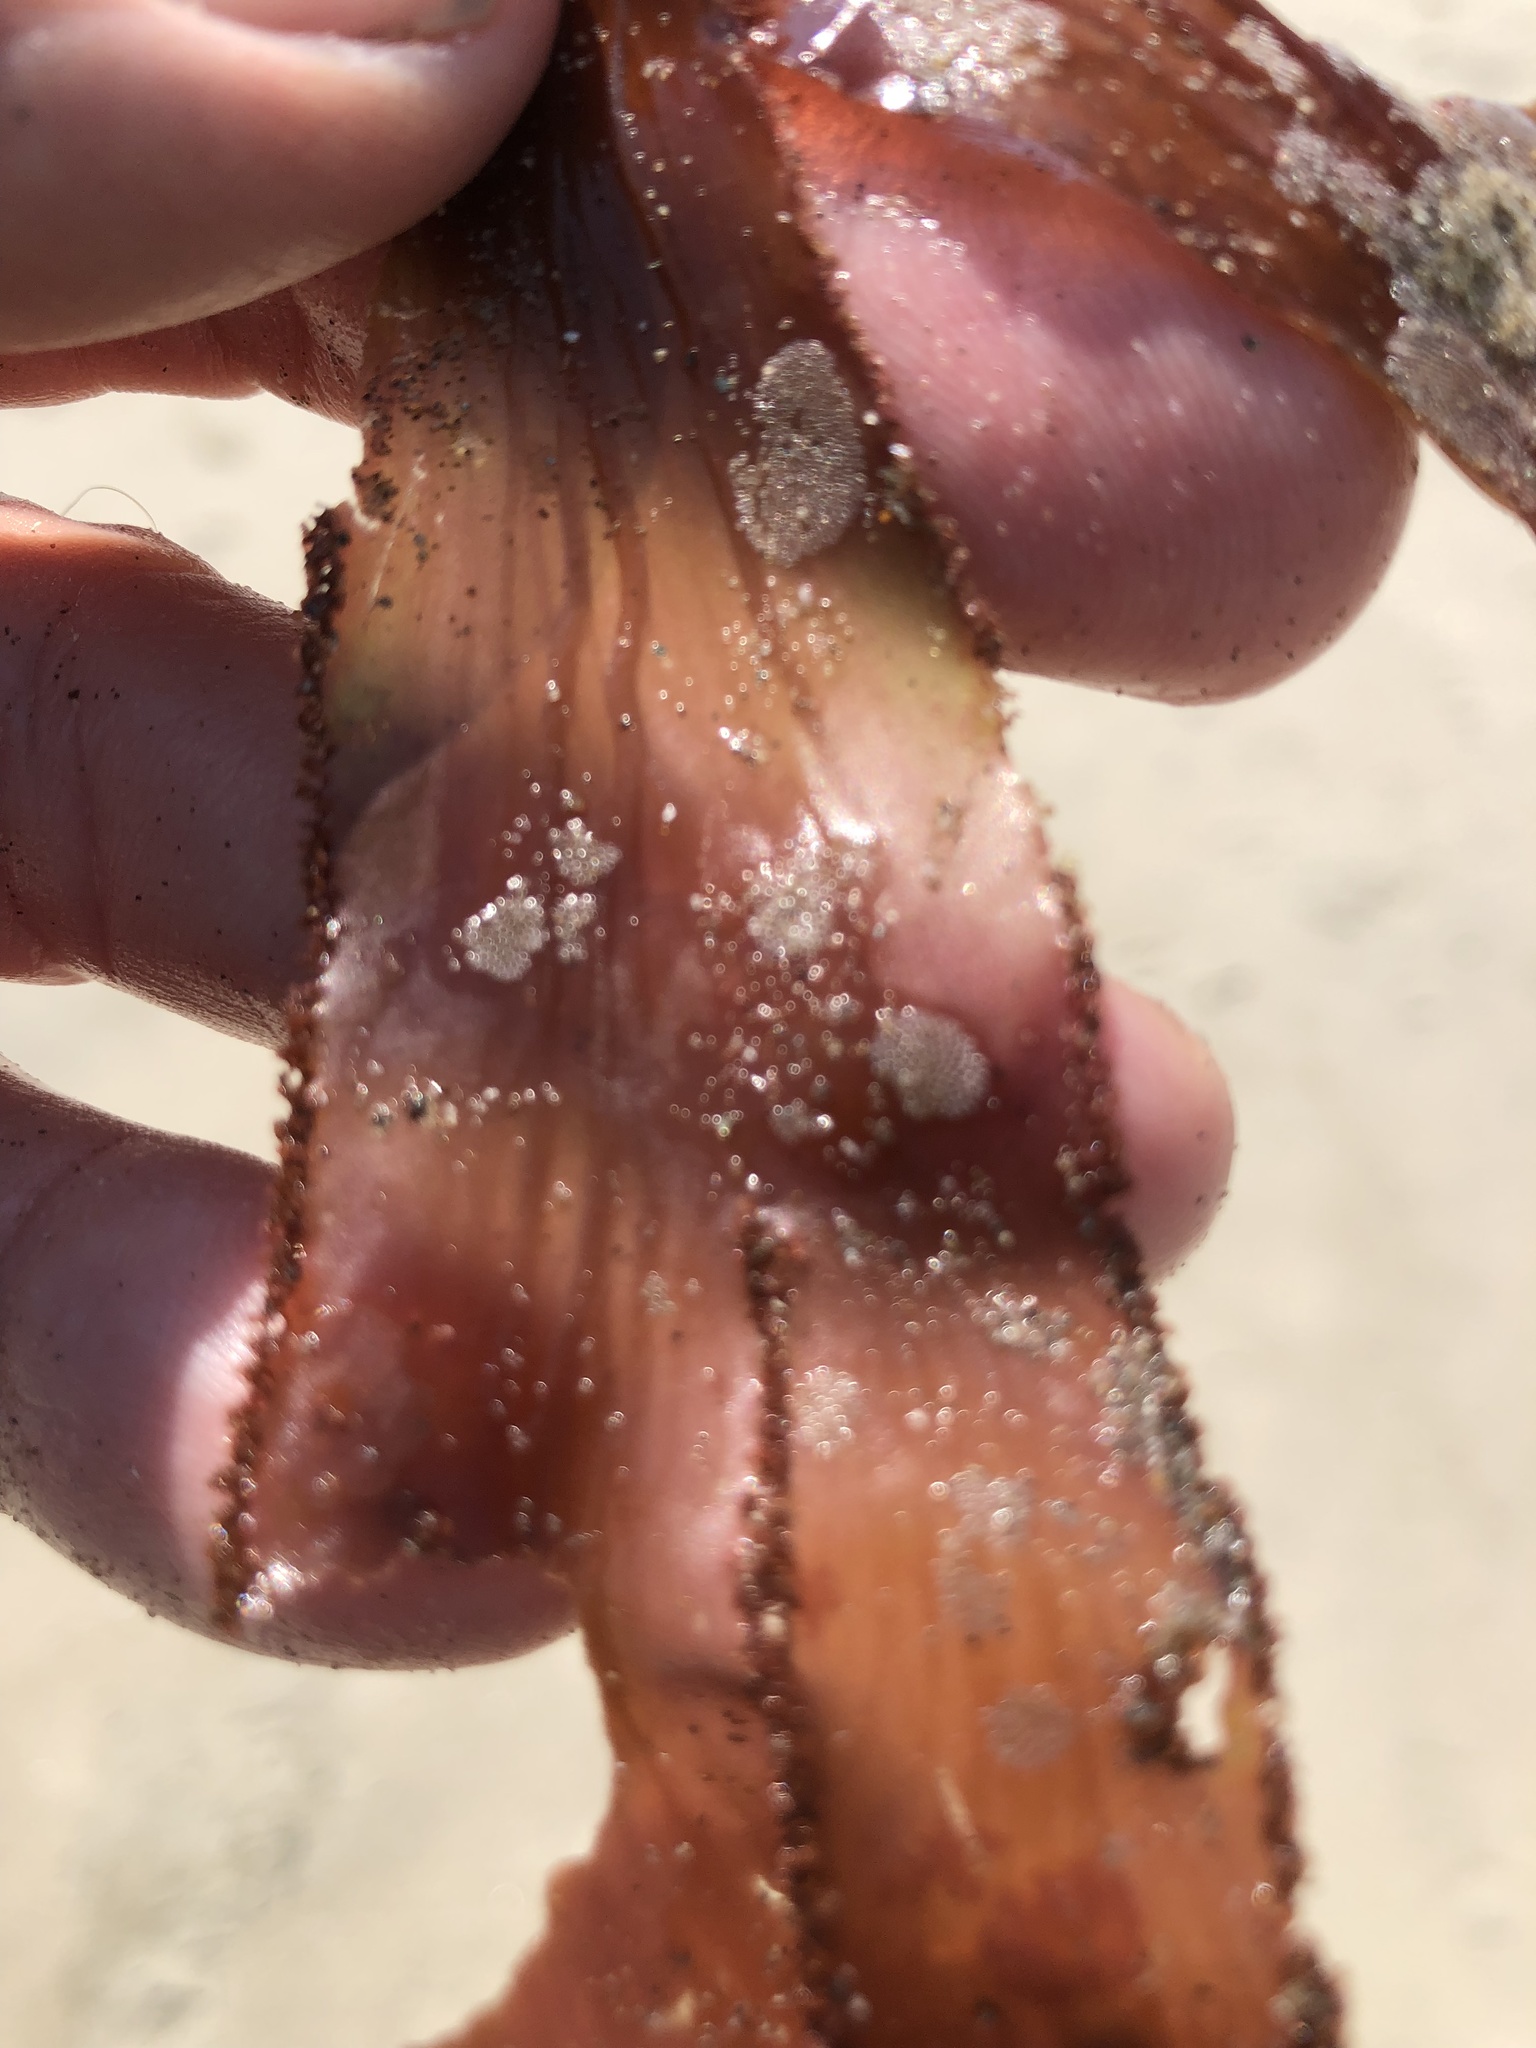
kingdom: Plantae
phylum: Rhodophyta
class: Florideophyceae
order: Ceramiales
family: Delesseriaceae
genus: Cryptopleura
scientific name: Cryptopleura ruprechtiana
